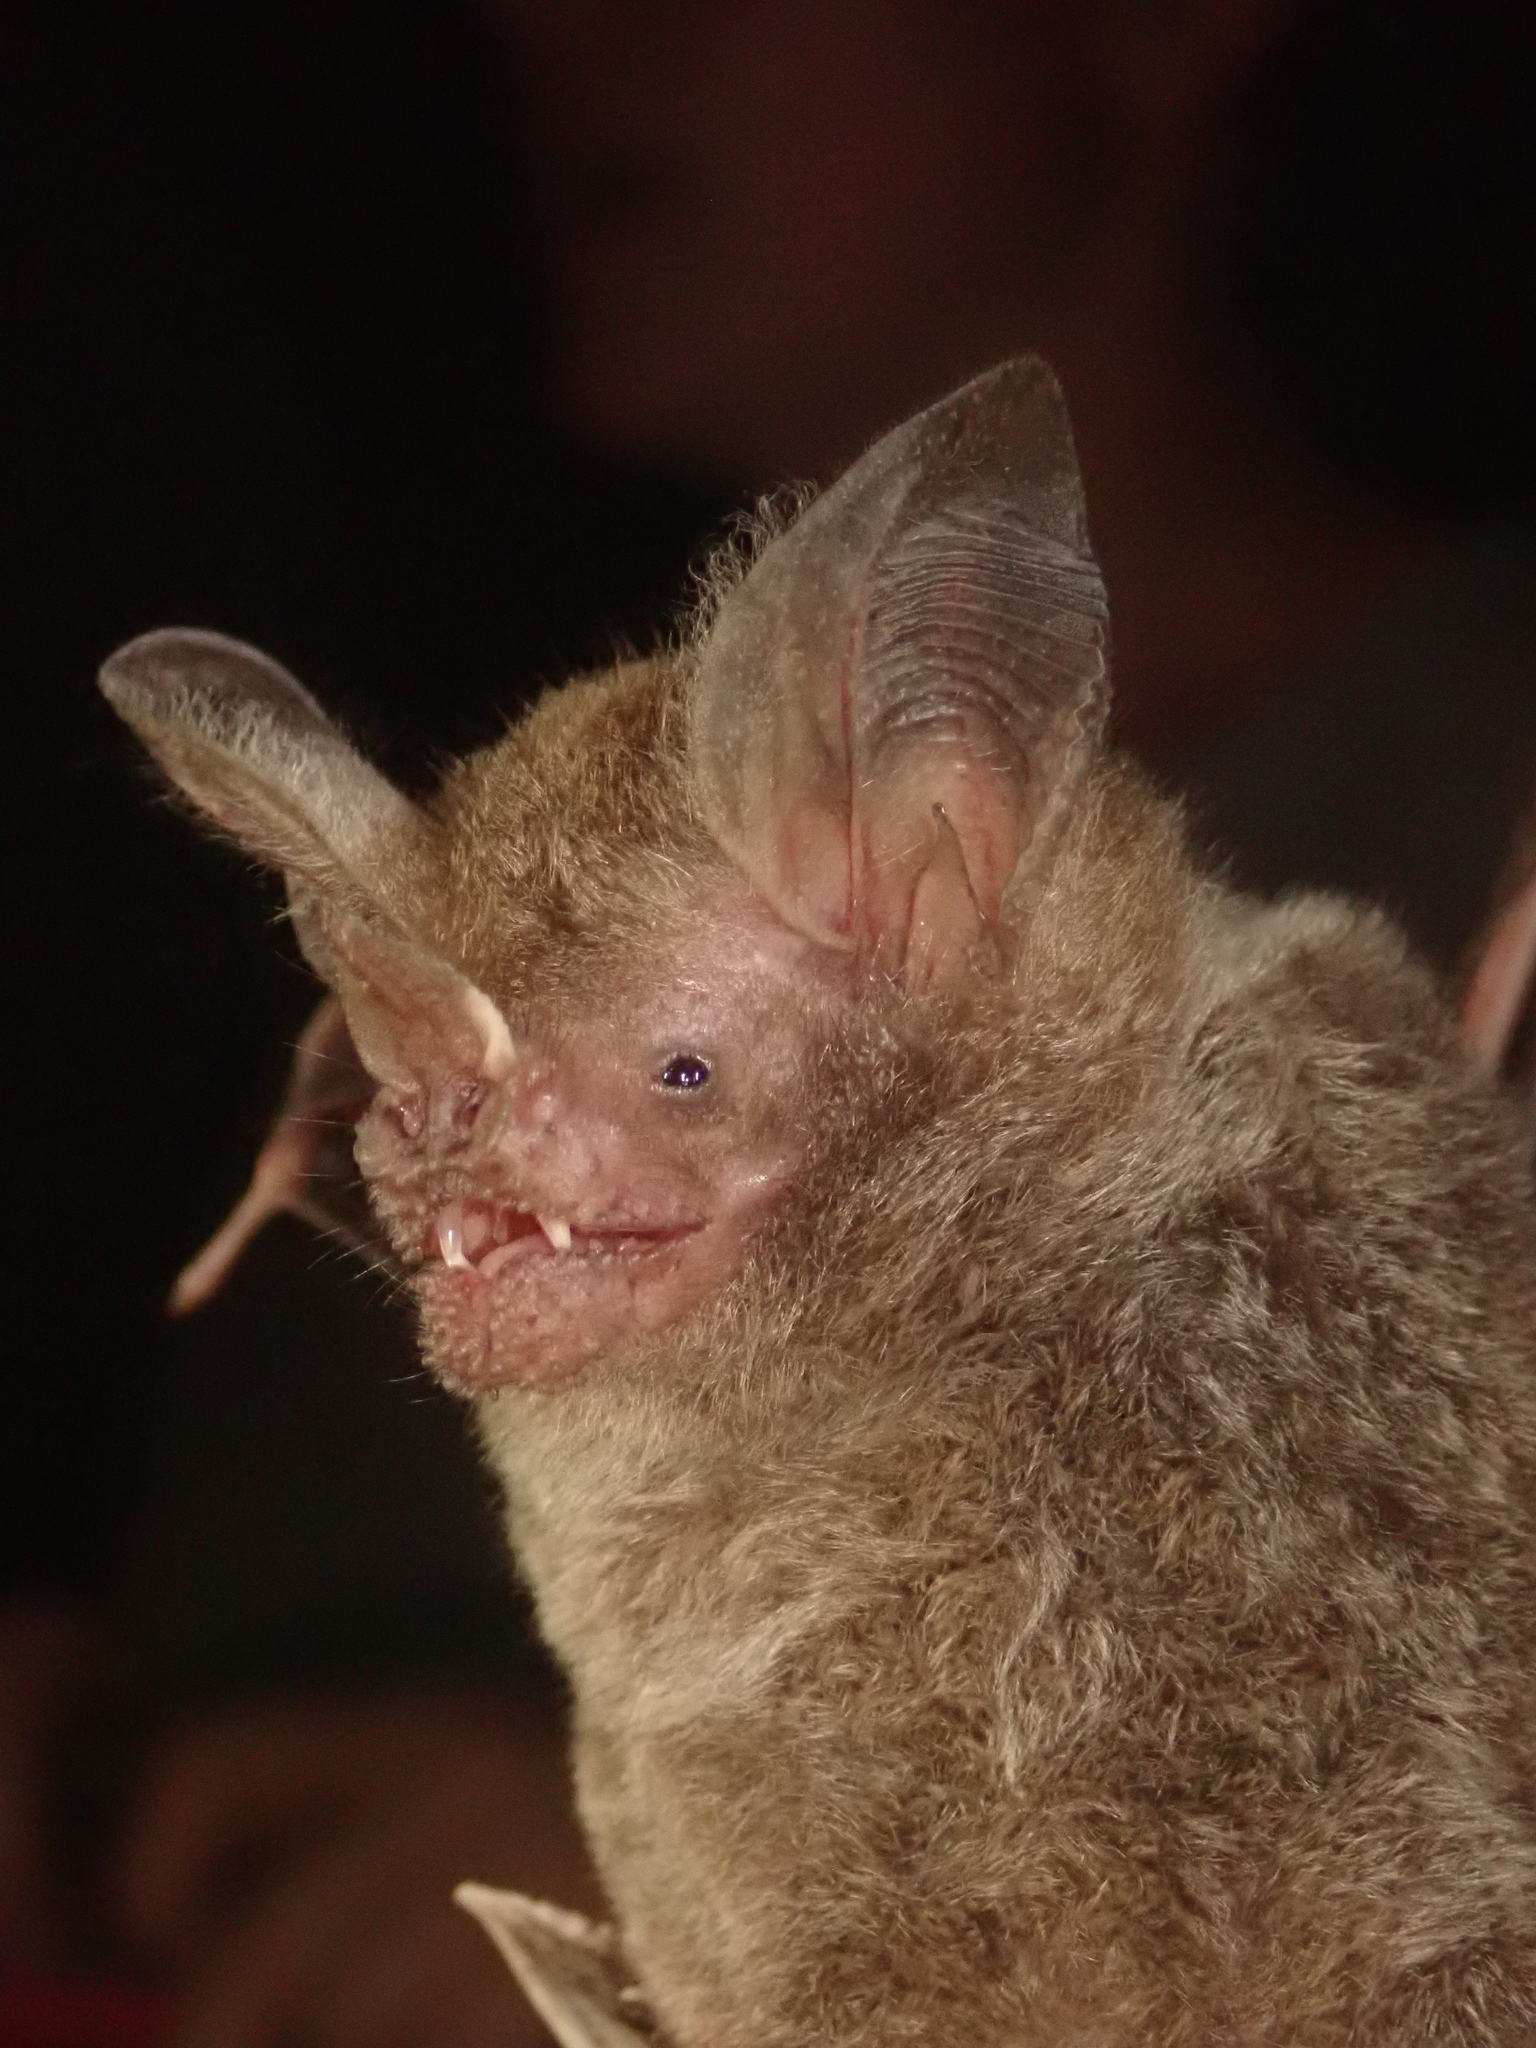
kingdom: Animalia
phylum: Chordata
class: Mammalia
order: Chiroptera
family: Phyllostomidae
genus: Trachops
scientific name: Trachops cirrhosus
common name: Fringe-lipped bat
